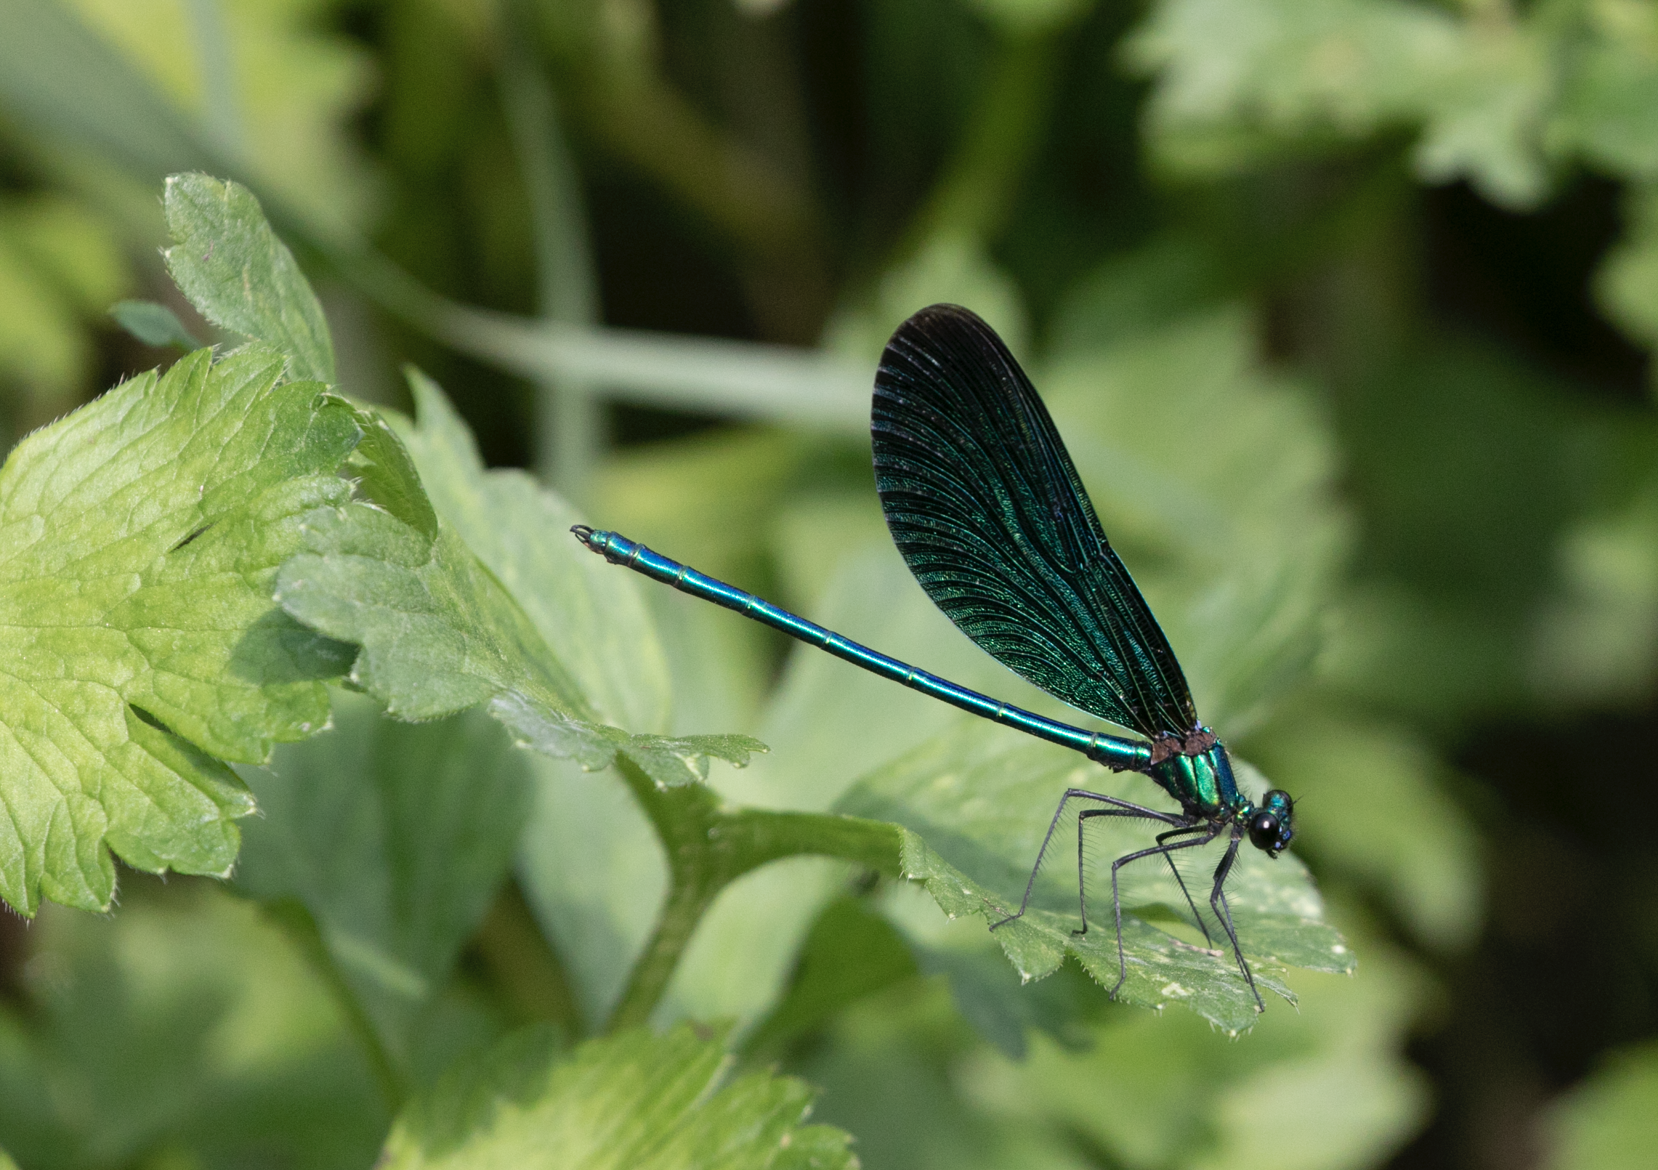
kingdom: Animalia
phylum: Arthropoda
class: Insecta
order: Odonata
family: Calopterygidae
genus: Calopteryx
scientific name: Calopteryx virgo
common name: Beautiful demoiselle
